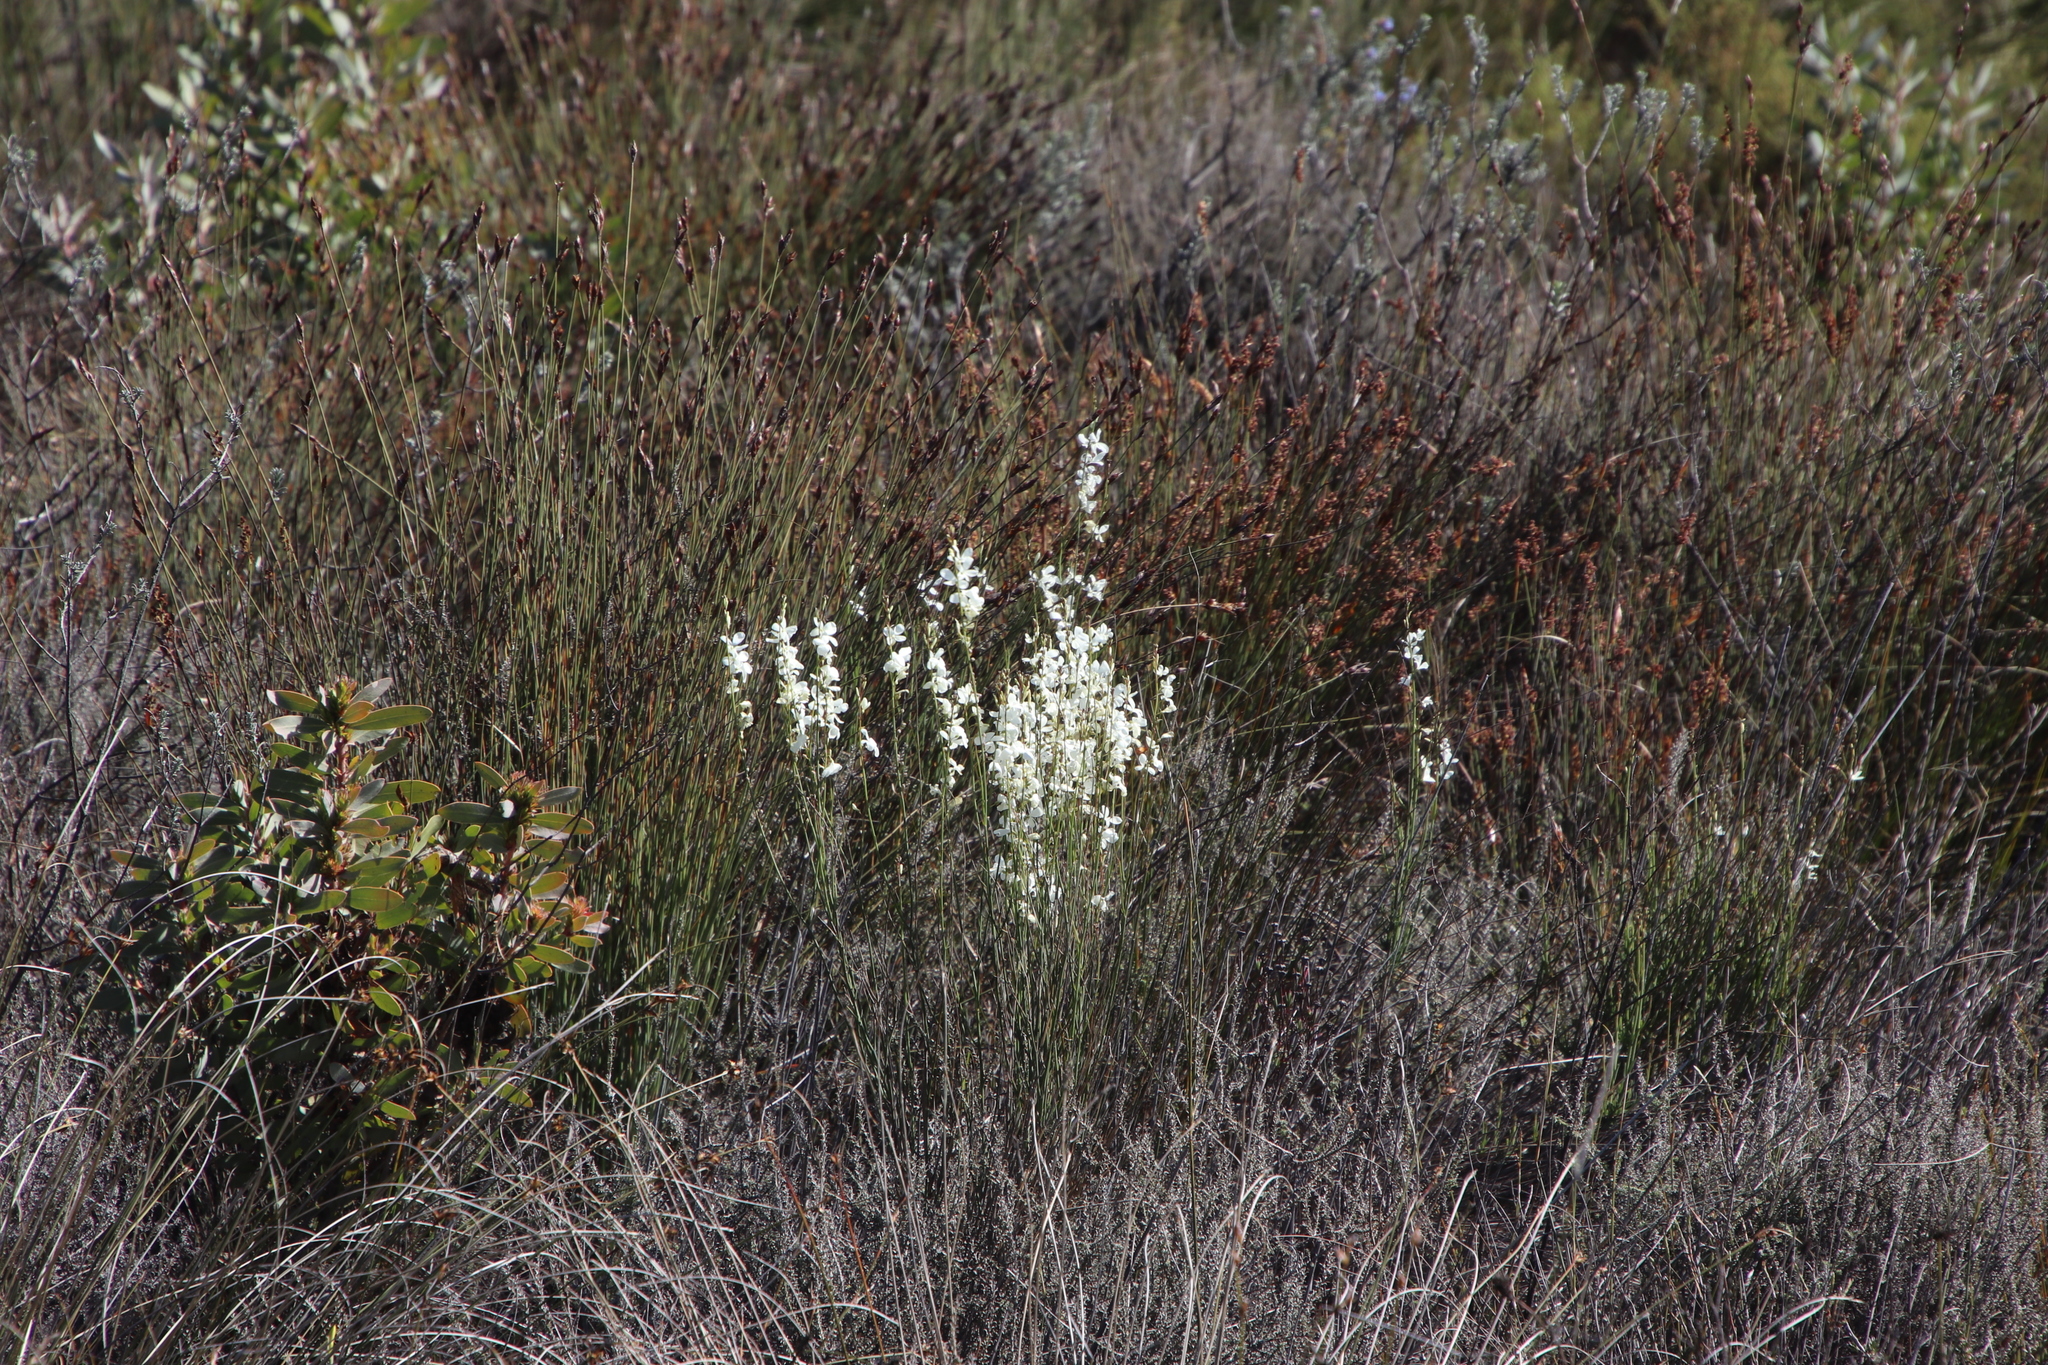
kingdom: Plantae
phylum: Tracheophyta
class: Magnoliopsida
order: Brassicales
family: Brassicaceae
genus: Heliophila
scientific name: Heliophila juncea
